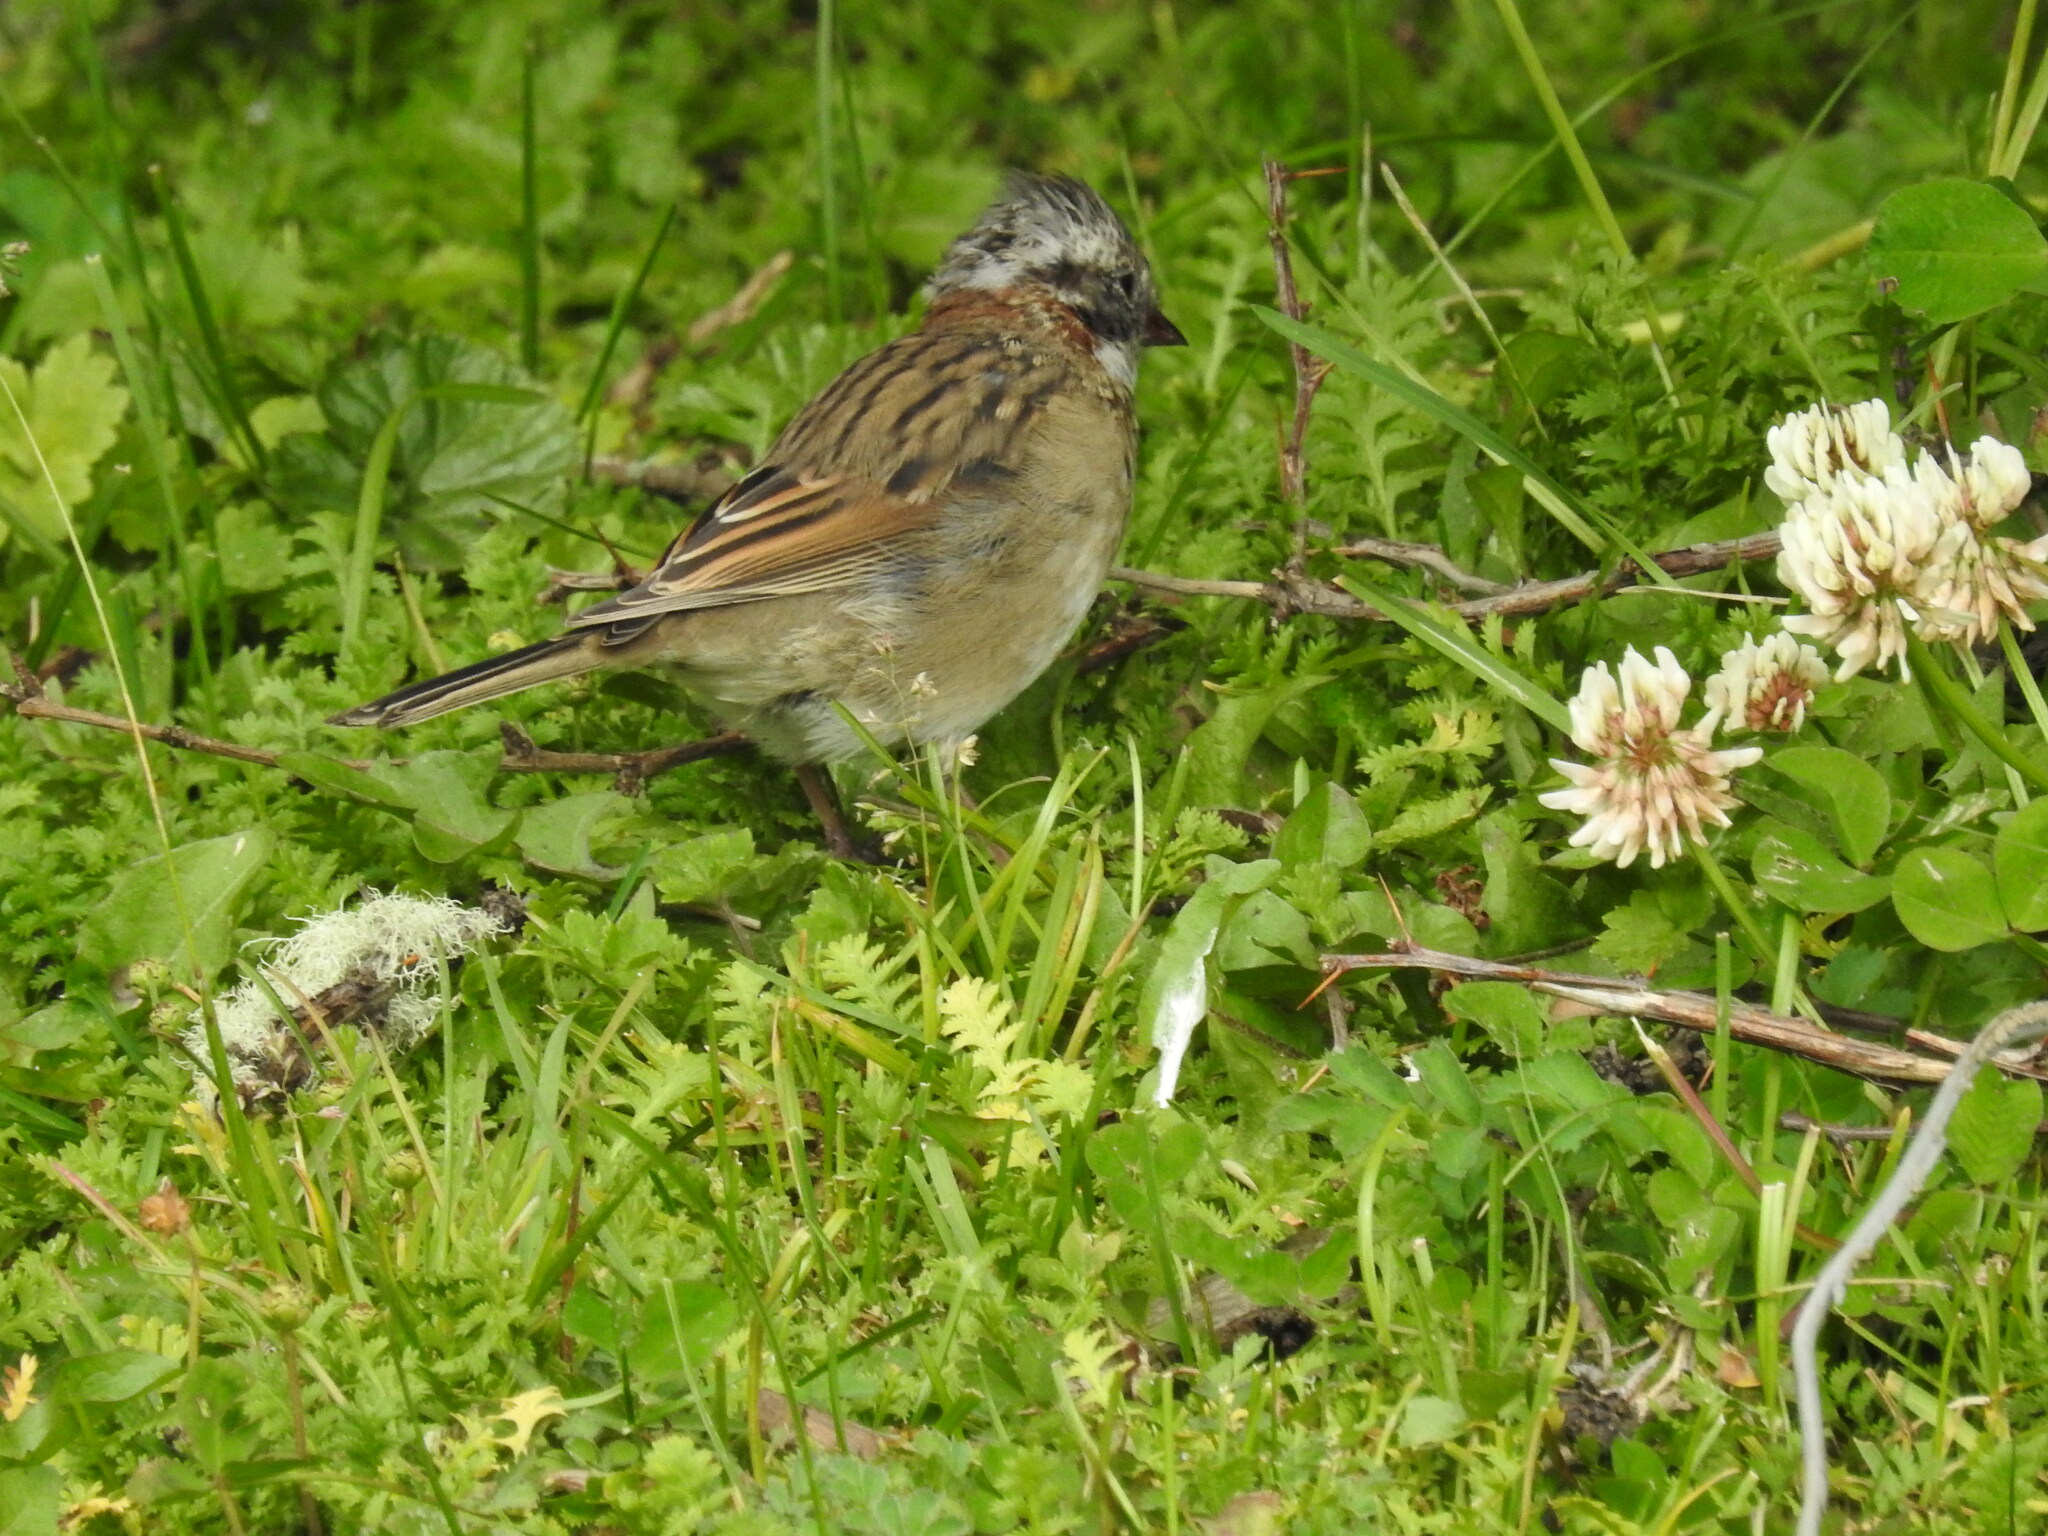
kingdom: Animalia
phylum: Chordata
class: Aves
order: Passeriformes
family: Passerellidae
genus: Zonotrichia
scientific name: Zonotrichia capensis
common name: Rufous-collared sparrow
